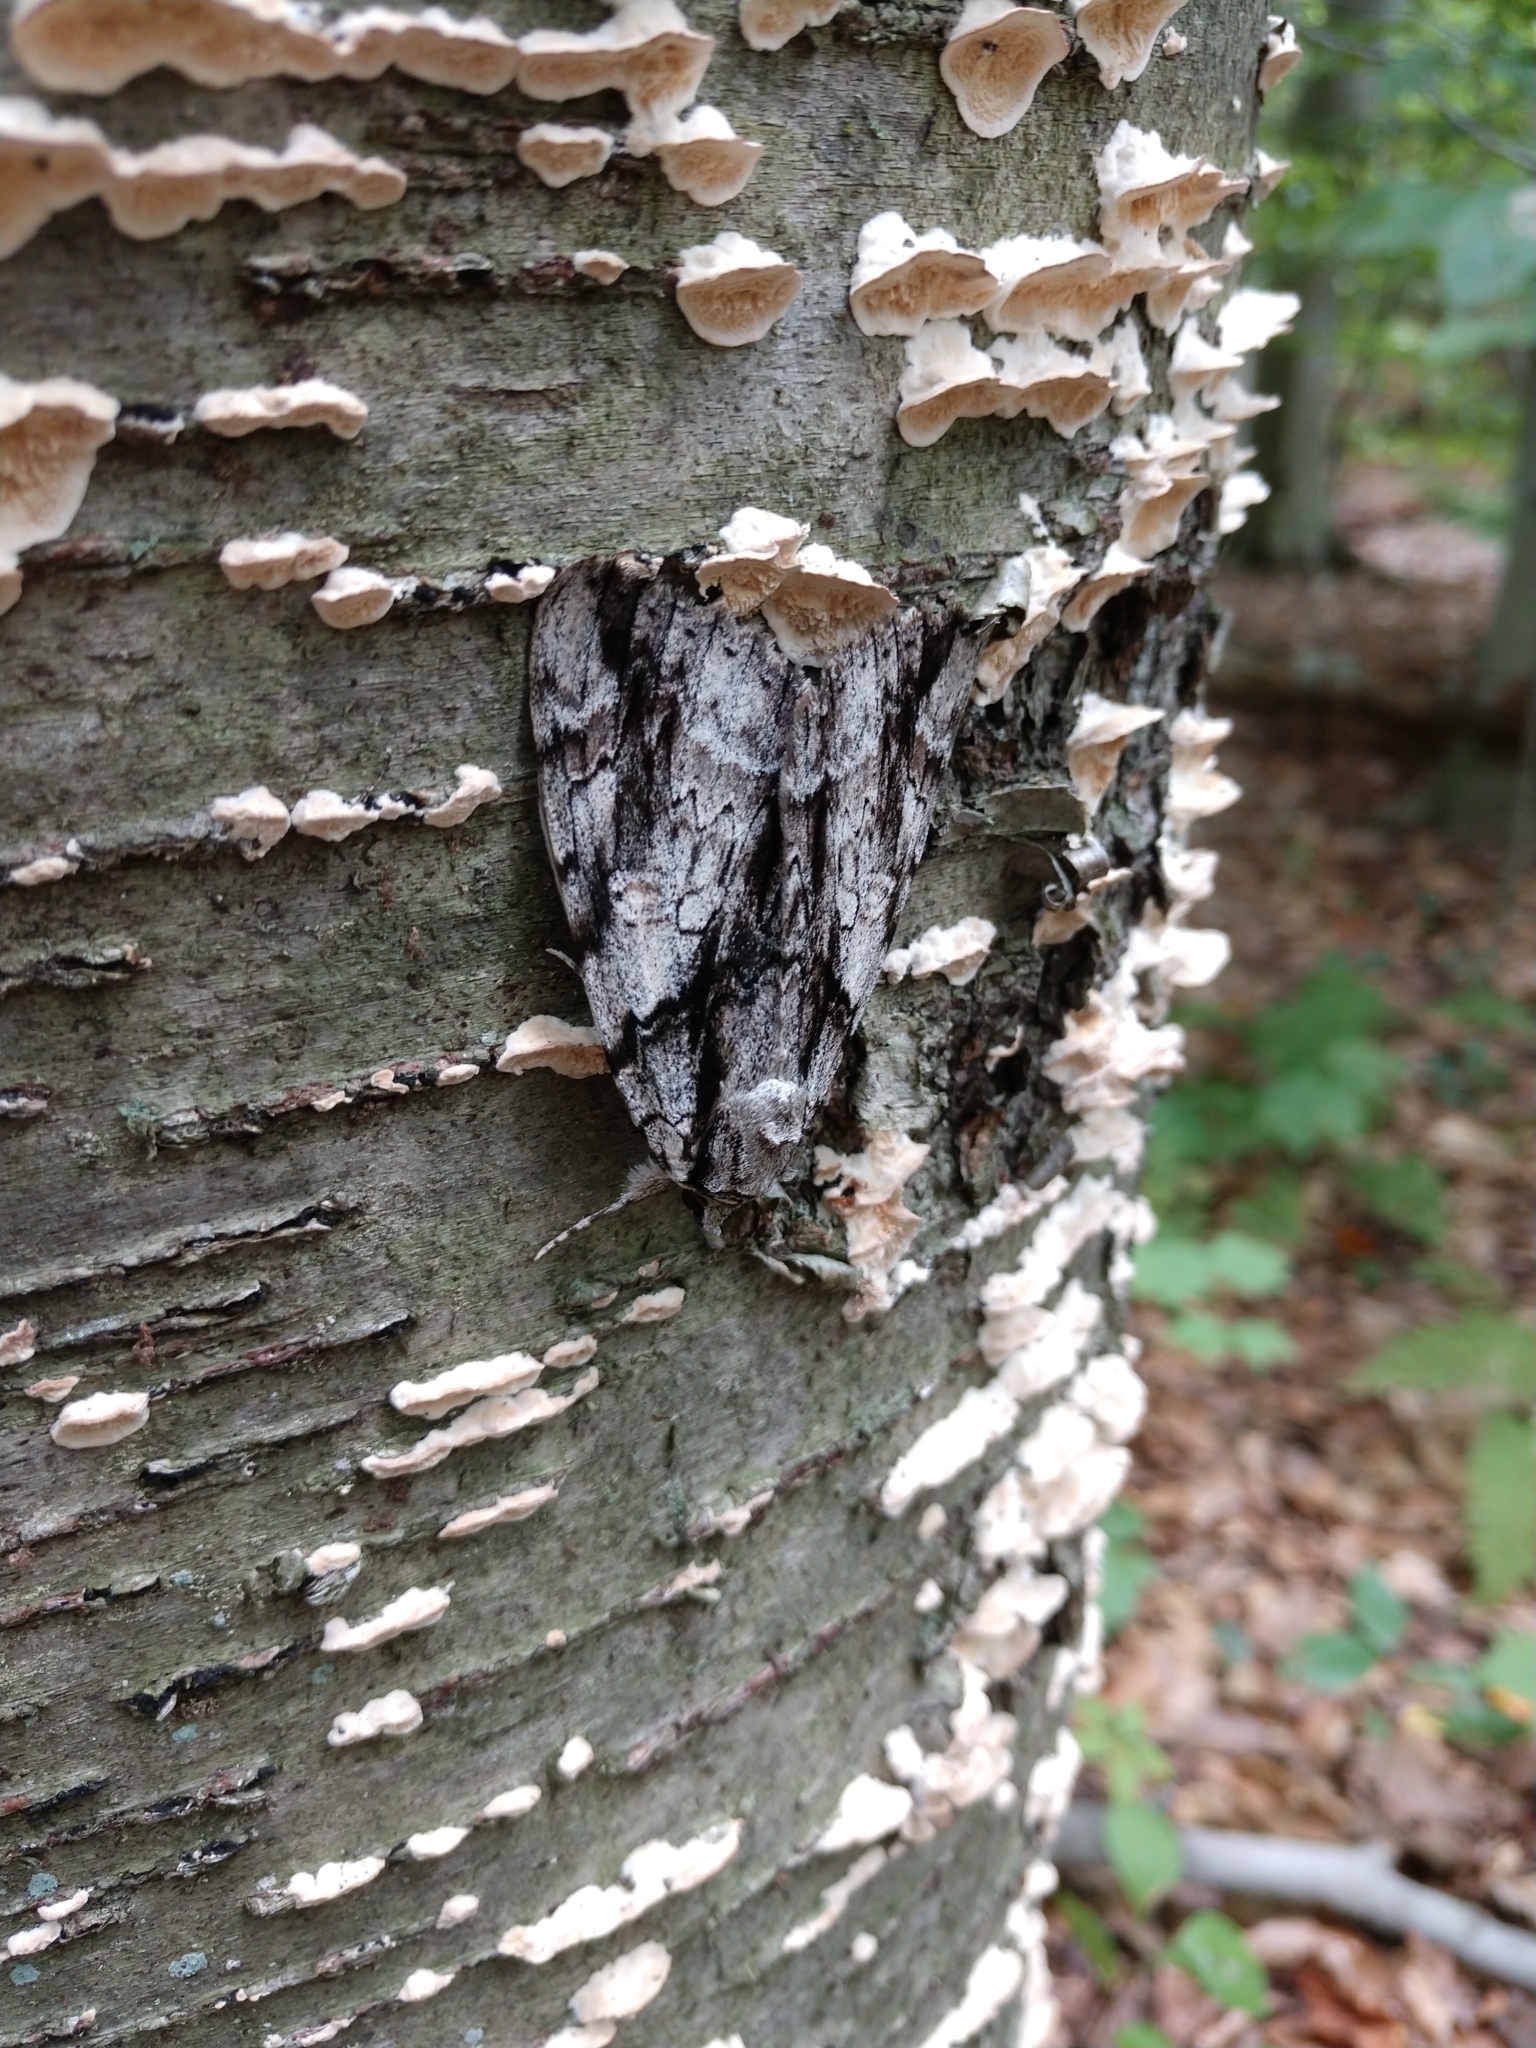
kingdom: Animalia
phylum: Arthropoda
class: Insecta
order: Lepidoptera
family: Erebidae
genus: Catocala
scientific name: Catocala vidua
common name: The widow
